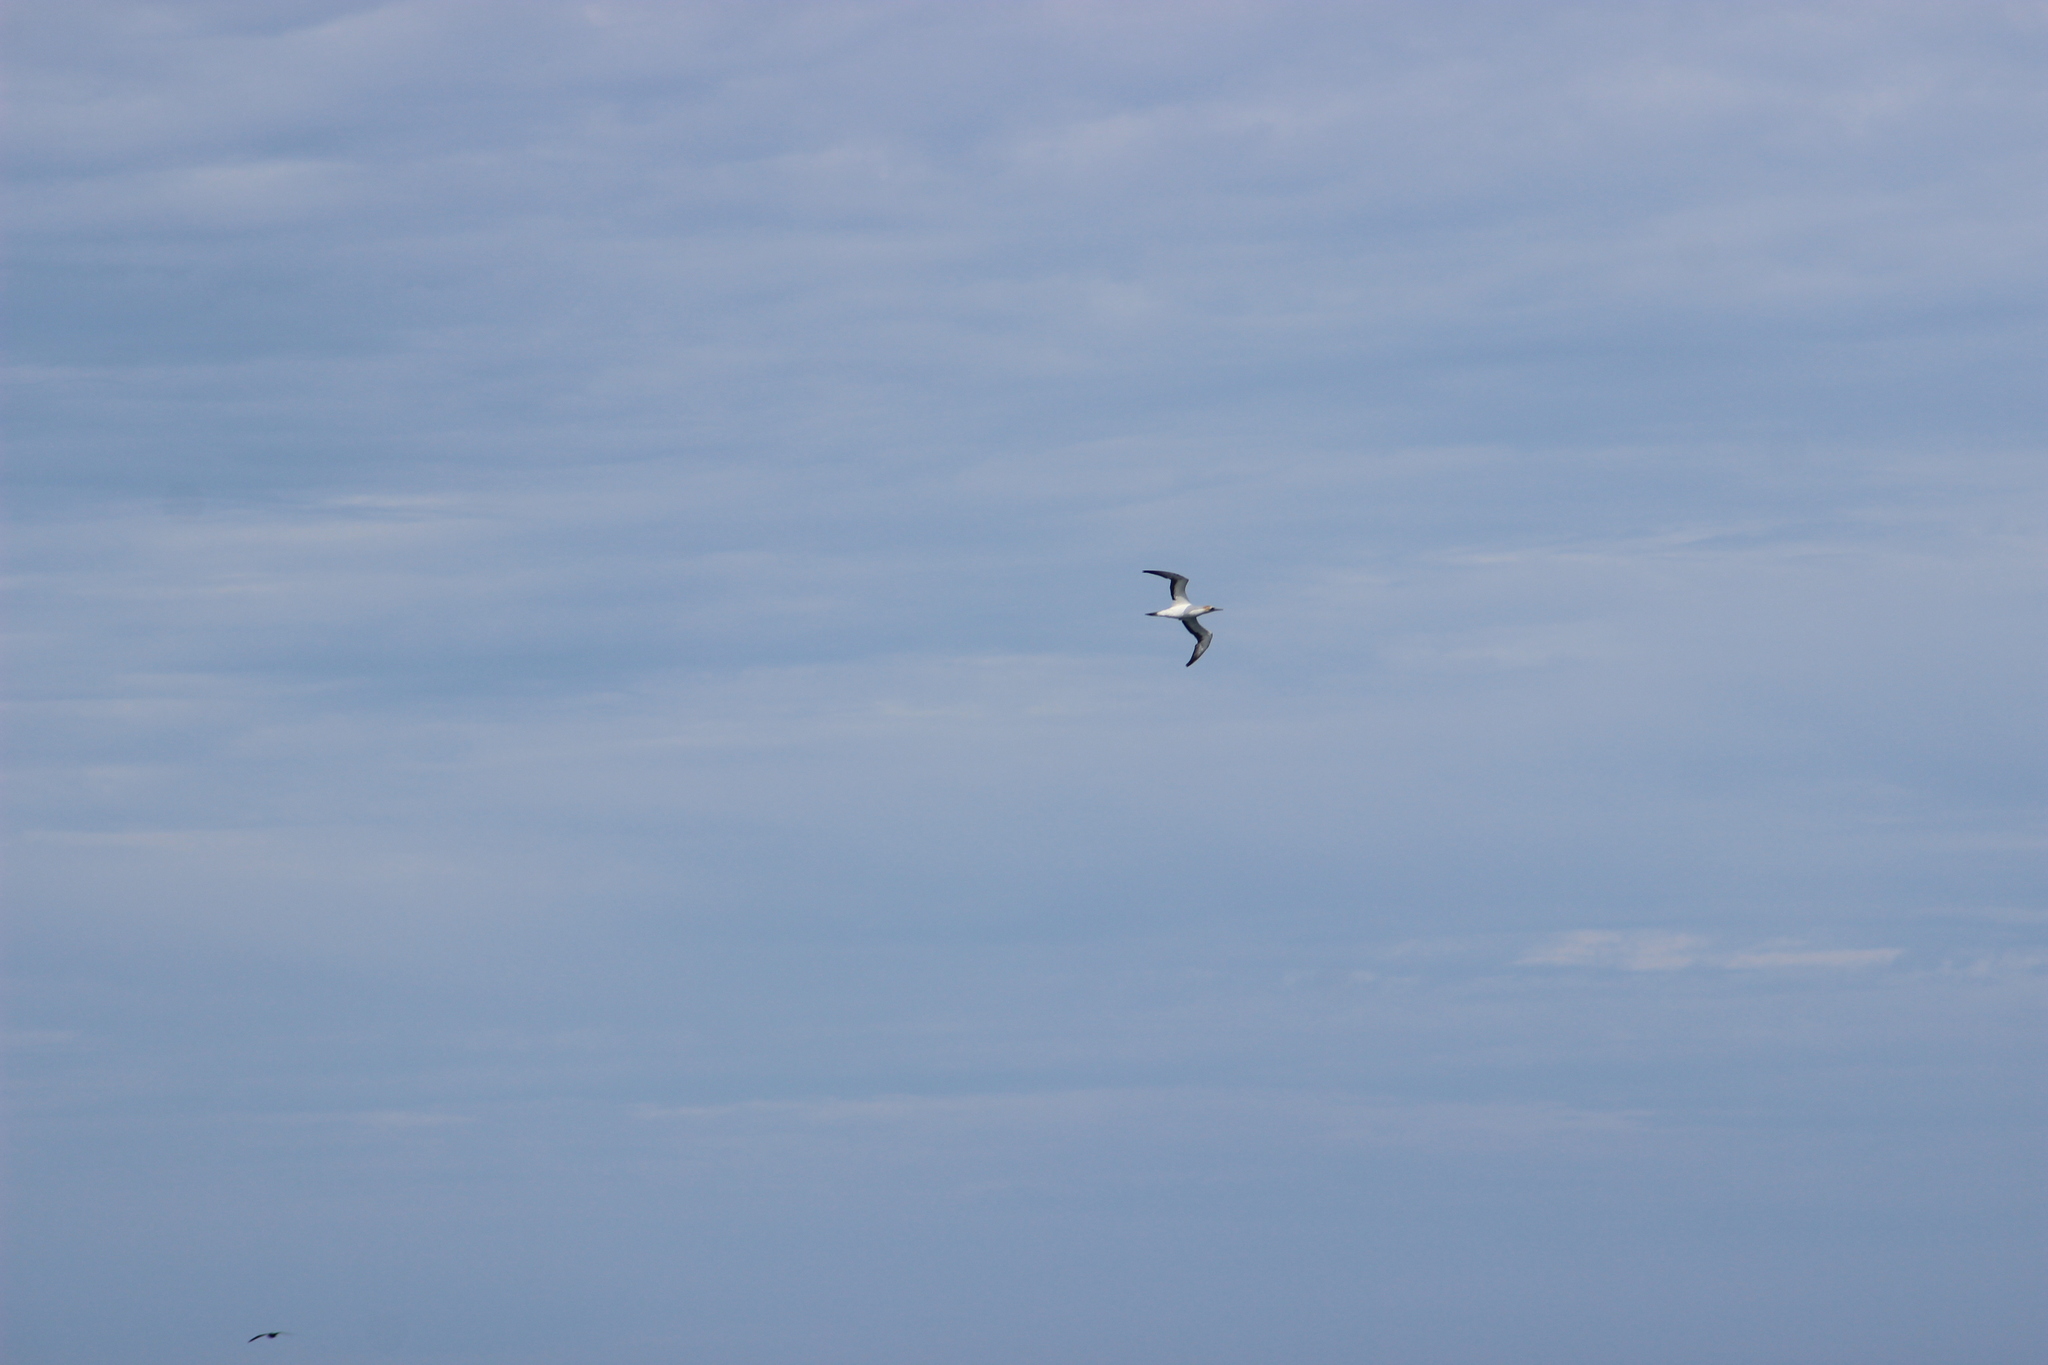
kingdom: Animalia
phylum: Chordata
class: Aves
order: Suliformes
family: Sulidae
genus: Morus
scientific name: Morus serrator
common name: Australasian gannet
